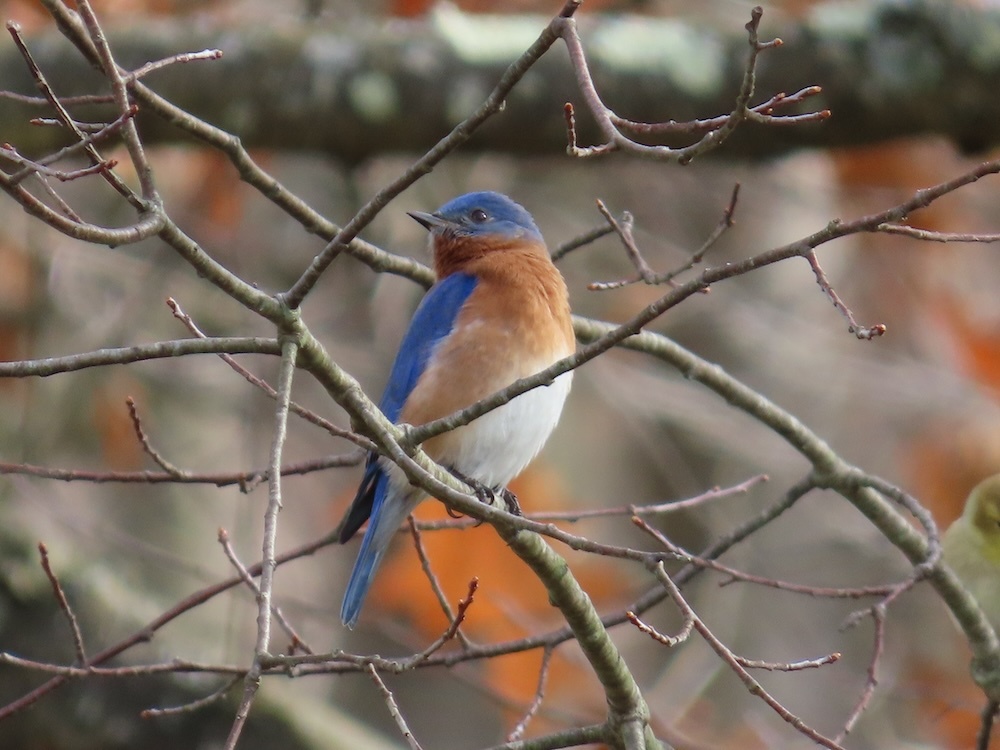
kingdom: Animalia
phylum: Chordata
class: Aves
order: Passeriformes
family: Turdidae
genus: Sialia
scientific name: Sialia sialis
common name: Eastern bluebird
